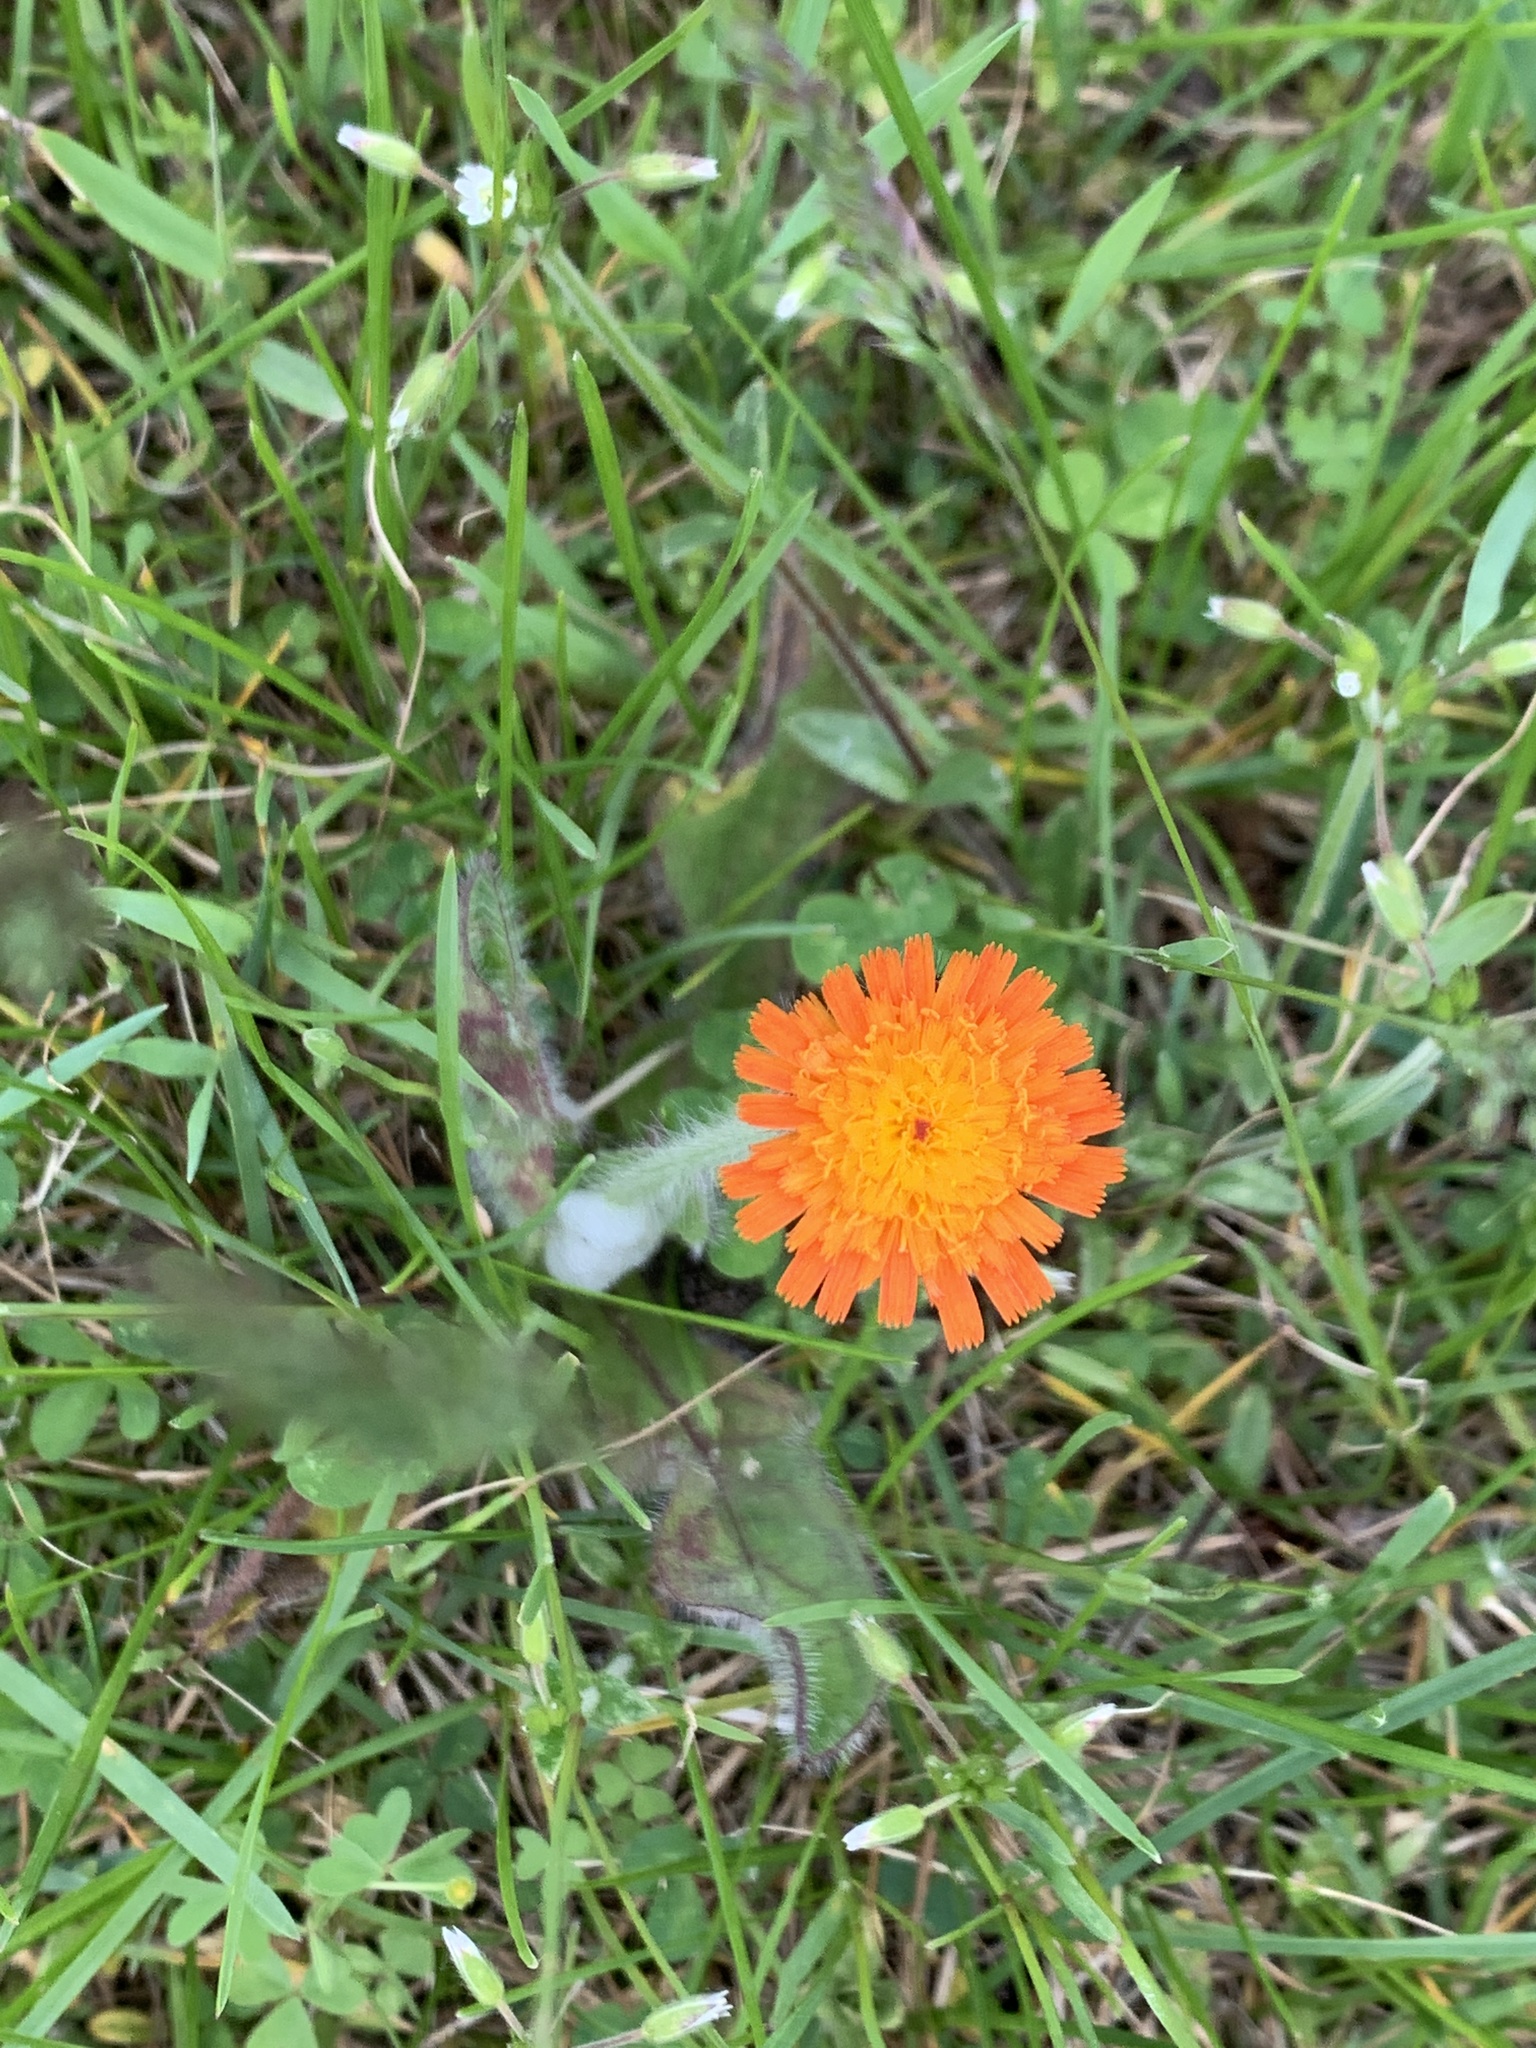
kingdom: Plantae
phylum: Tracheophyta
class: Magnoliopsida
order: Asterales
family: Asteraceae
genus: Pilosella
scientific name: Pilosella aurantiaca
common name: Fox-and-cubs
